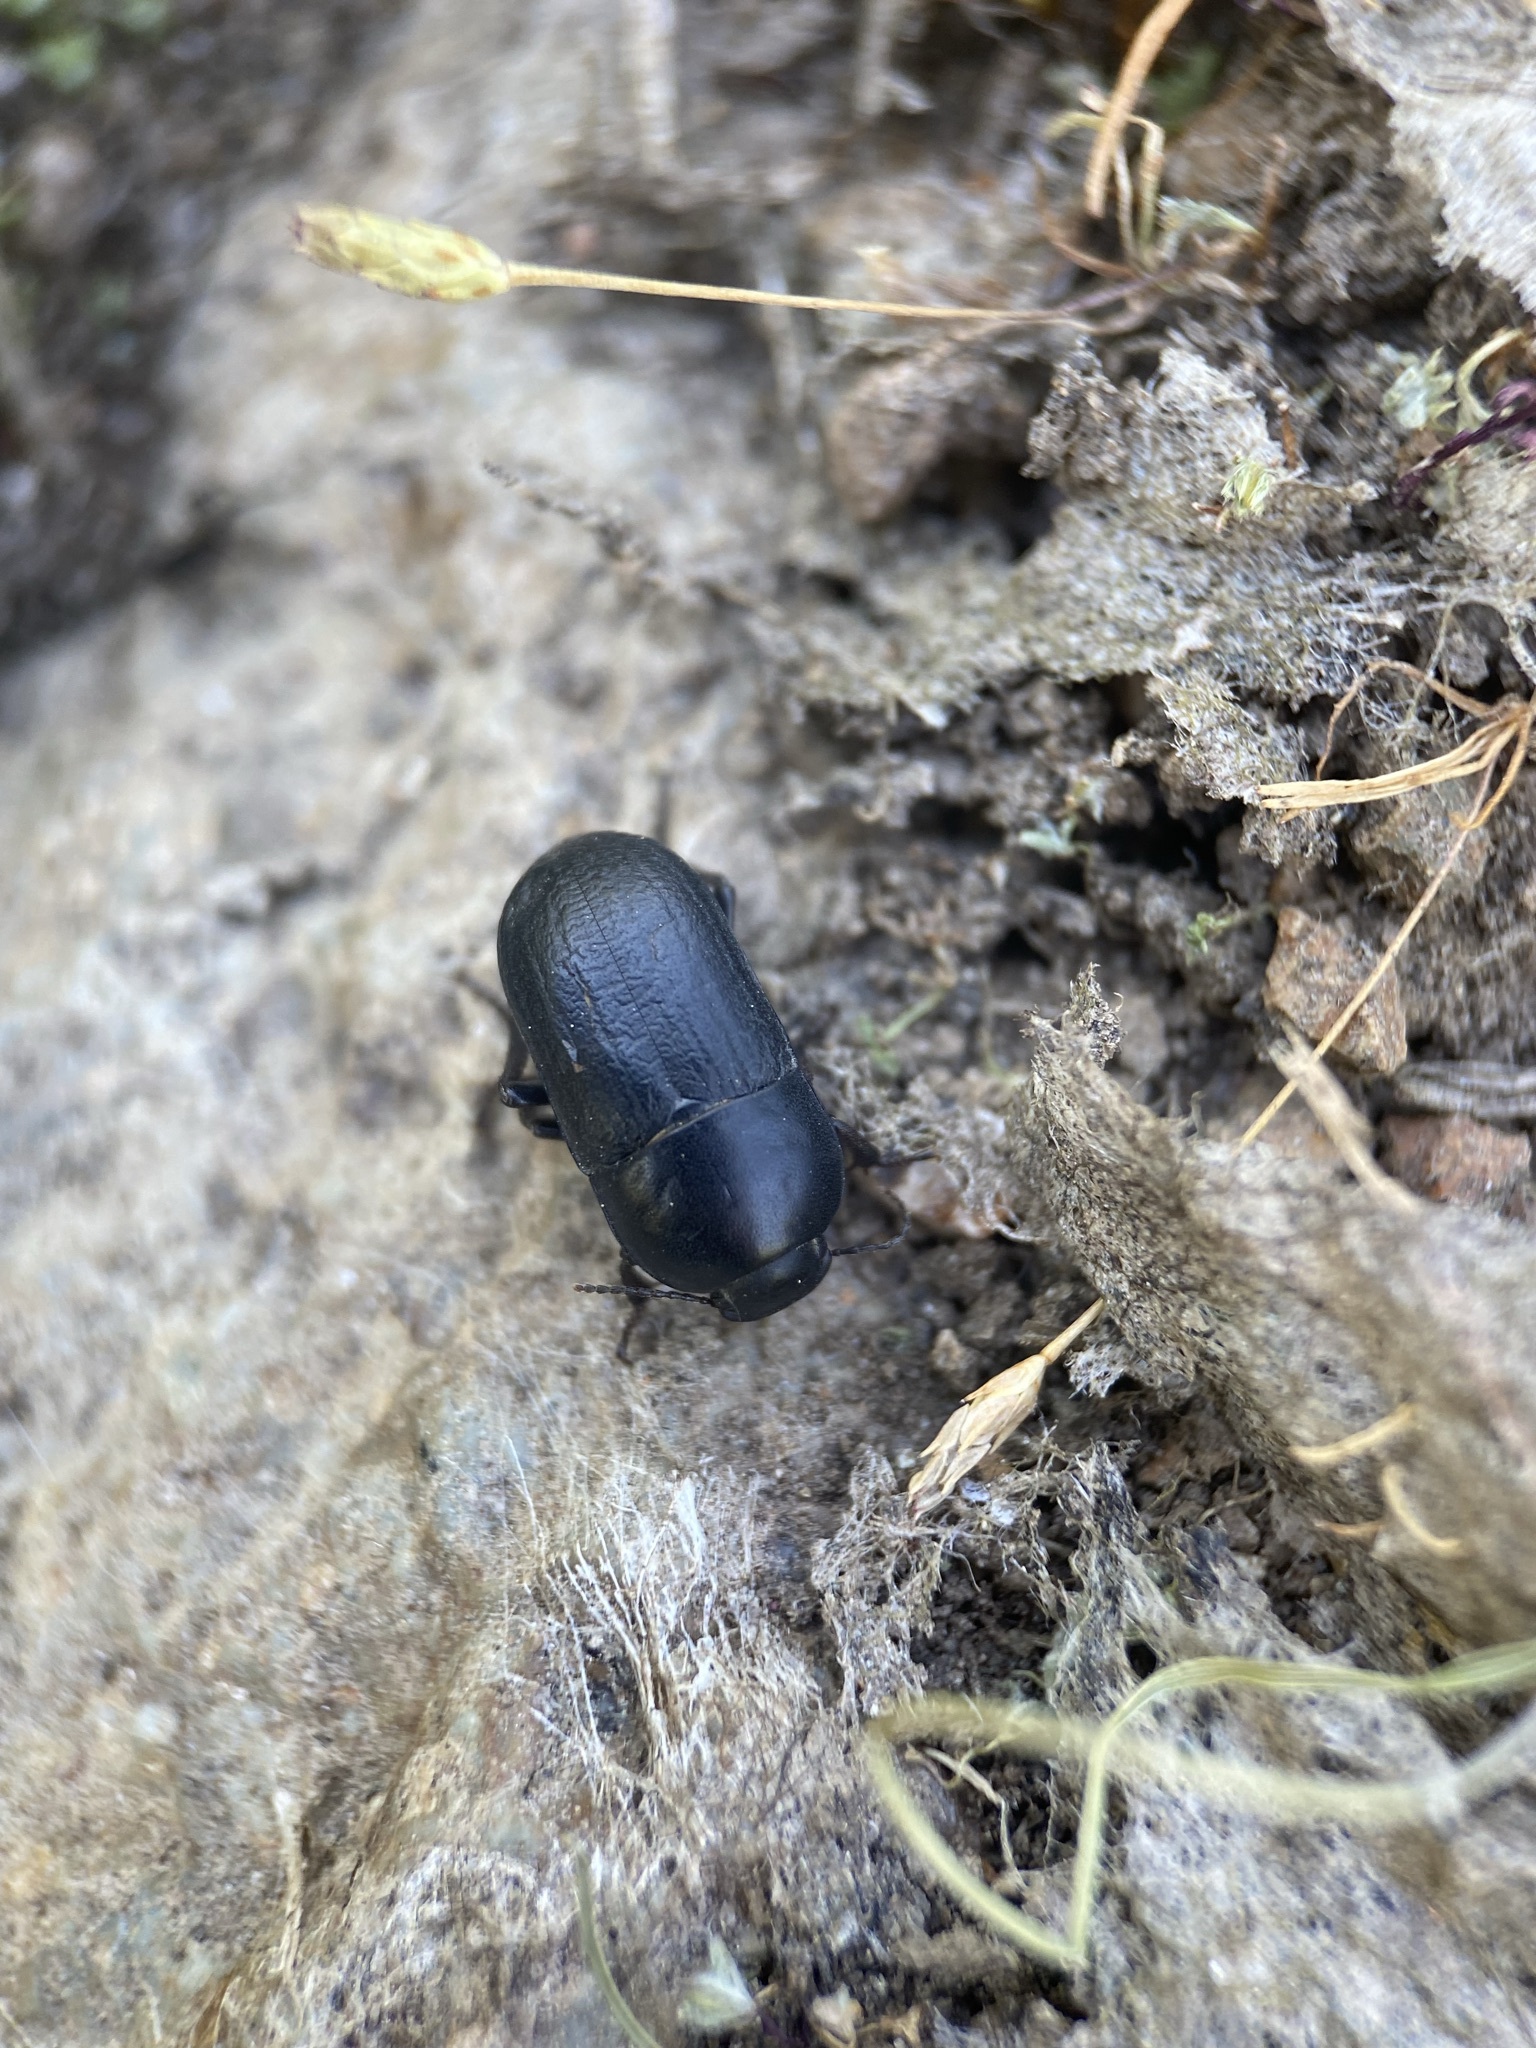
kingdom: Animalia
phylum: Arthropoda
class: Insecta
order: Coleoptera
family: Tenebrionidae
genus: Coniontis
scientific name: Coniontis
